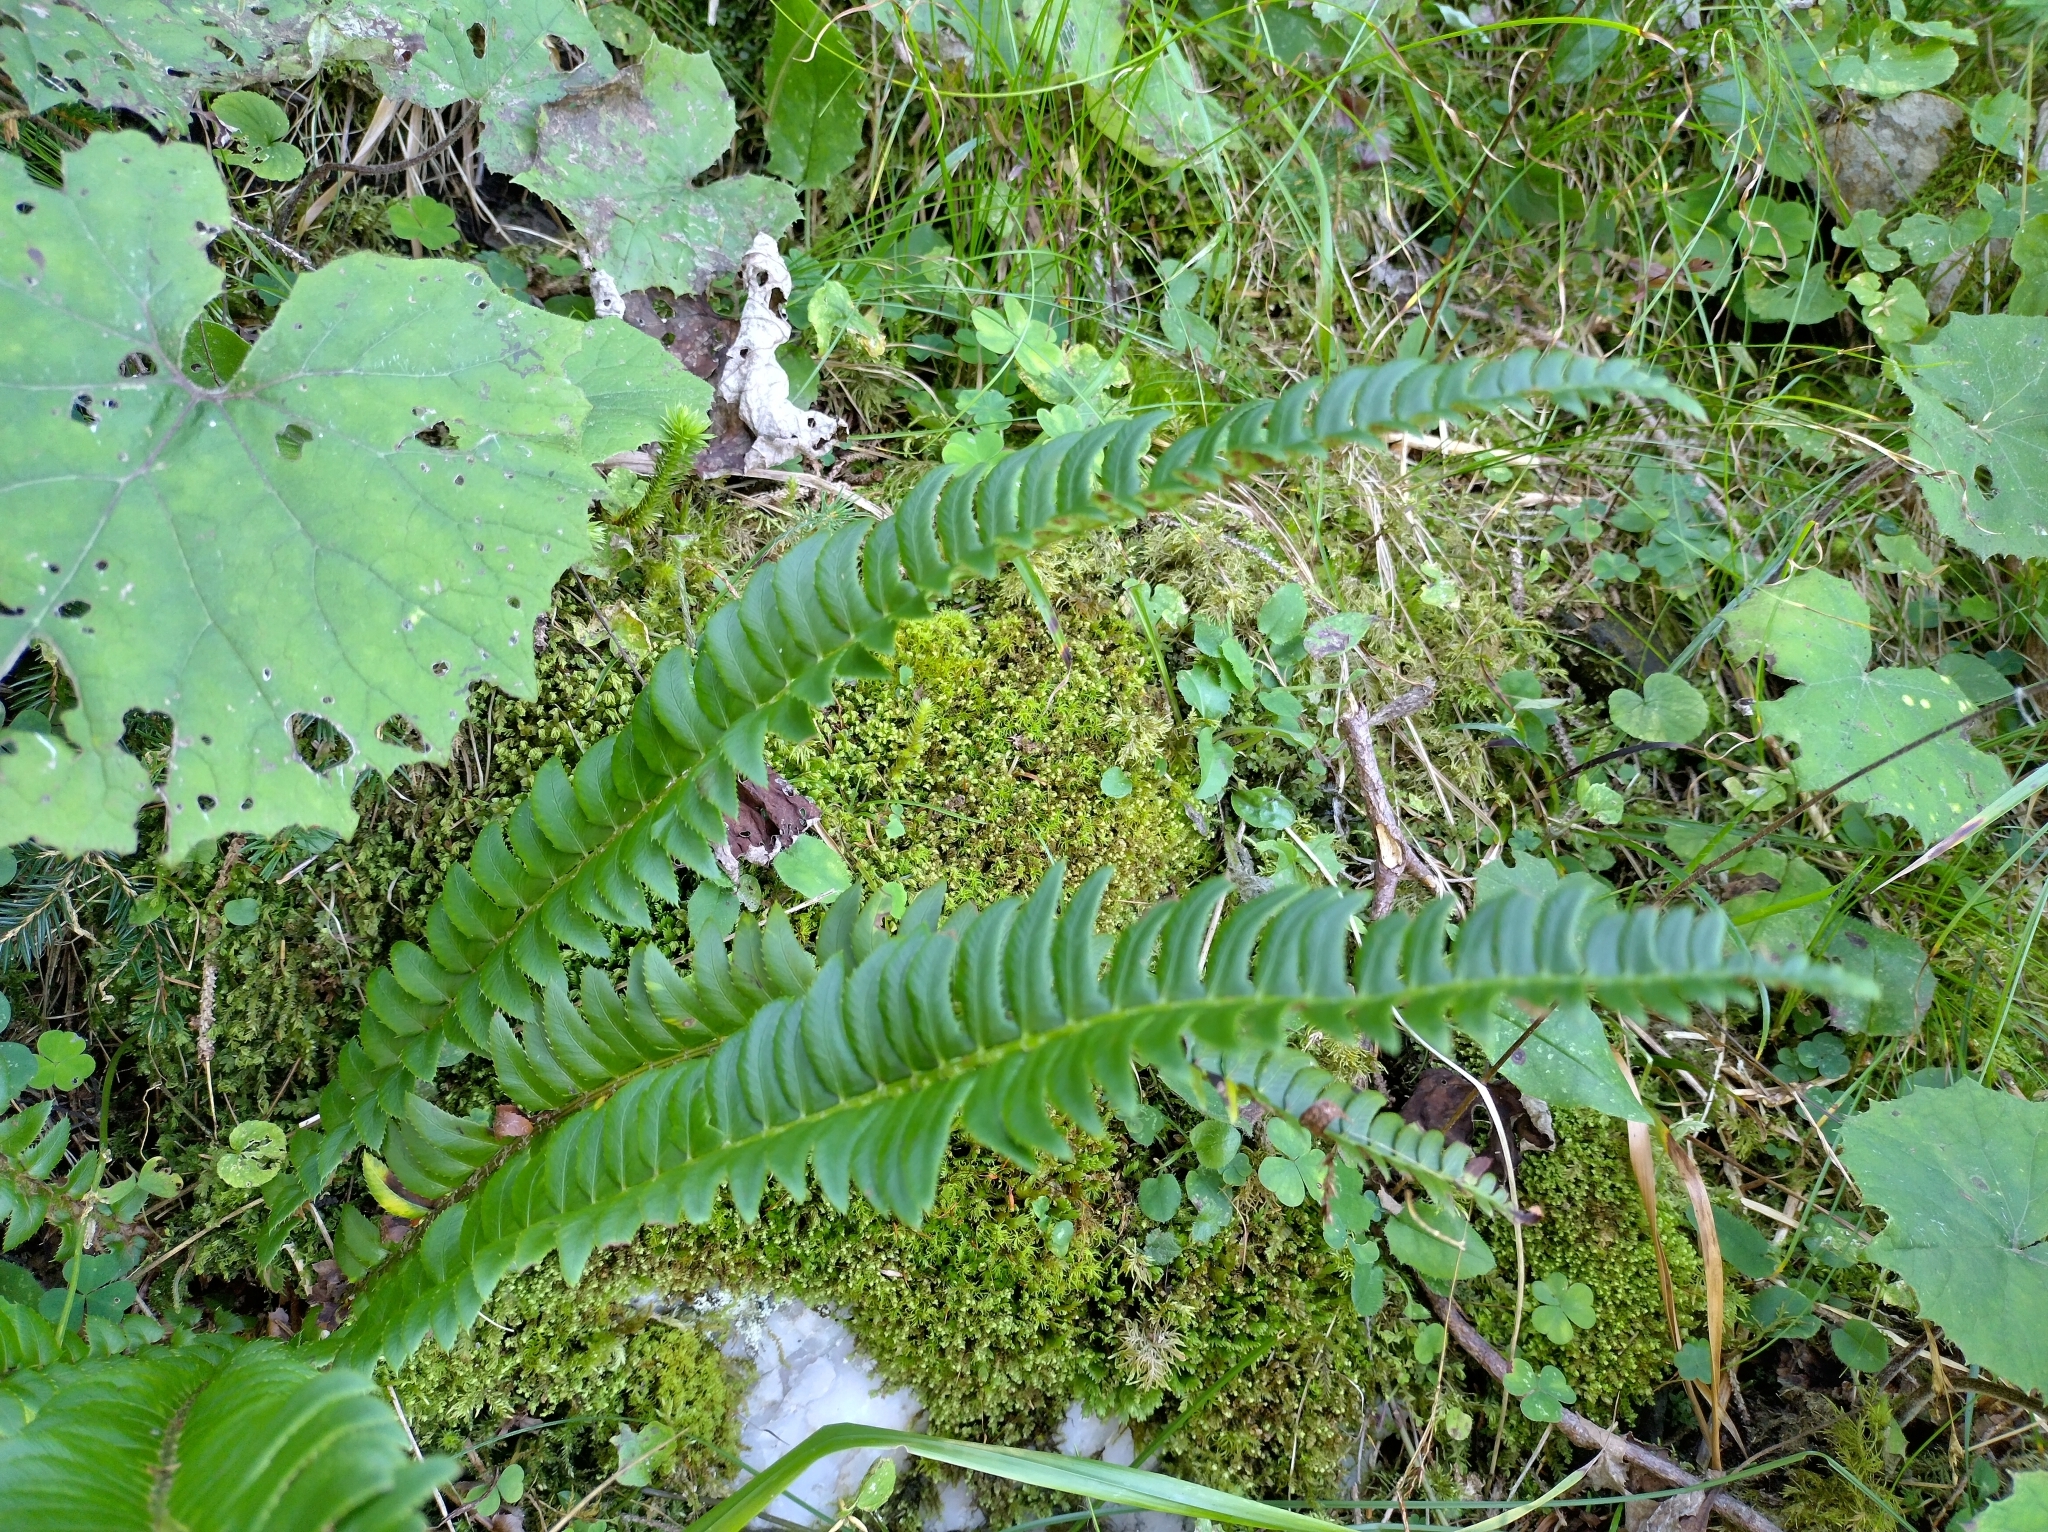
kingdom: Plantae
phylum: Tracheophyta
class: Polypodiopsida
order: Polypodiales
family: Dryopteridaceae
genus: Polystichum
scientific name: Polystichum lonchitis
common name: Holly fern
